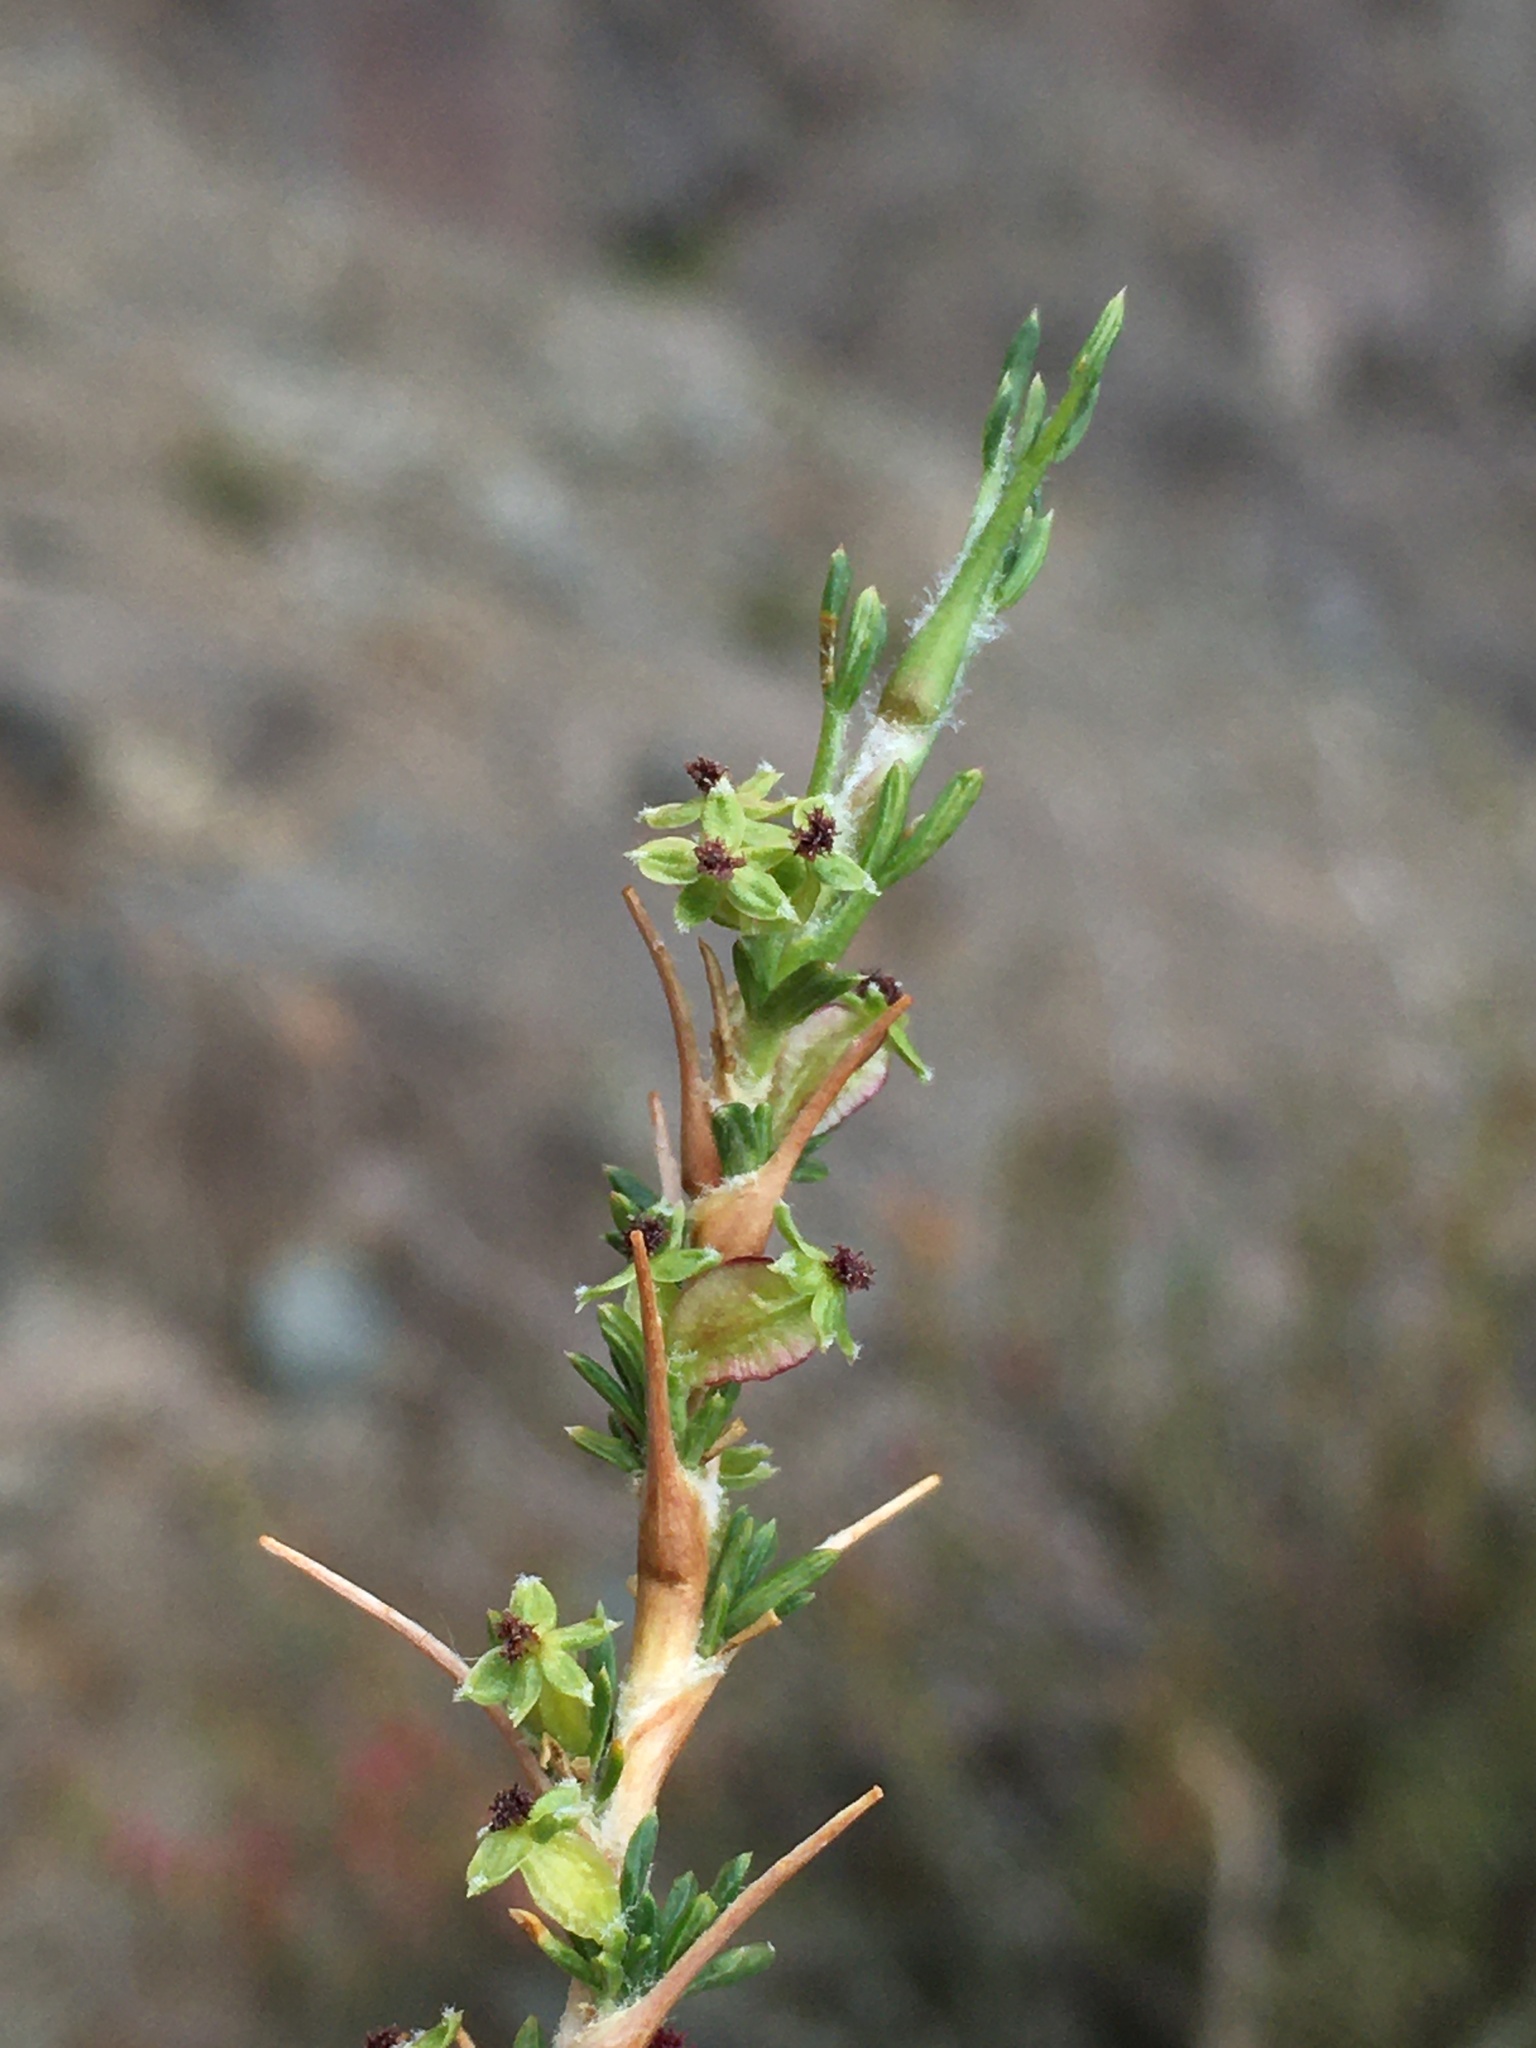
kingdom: Plantae
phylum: Tracheophyta
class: Magnoliopsida
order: Rosales
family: Rosaceae
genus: Margyricarpus
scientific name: Margyricarpus alatus
